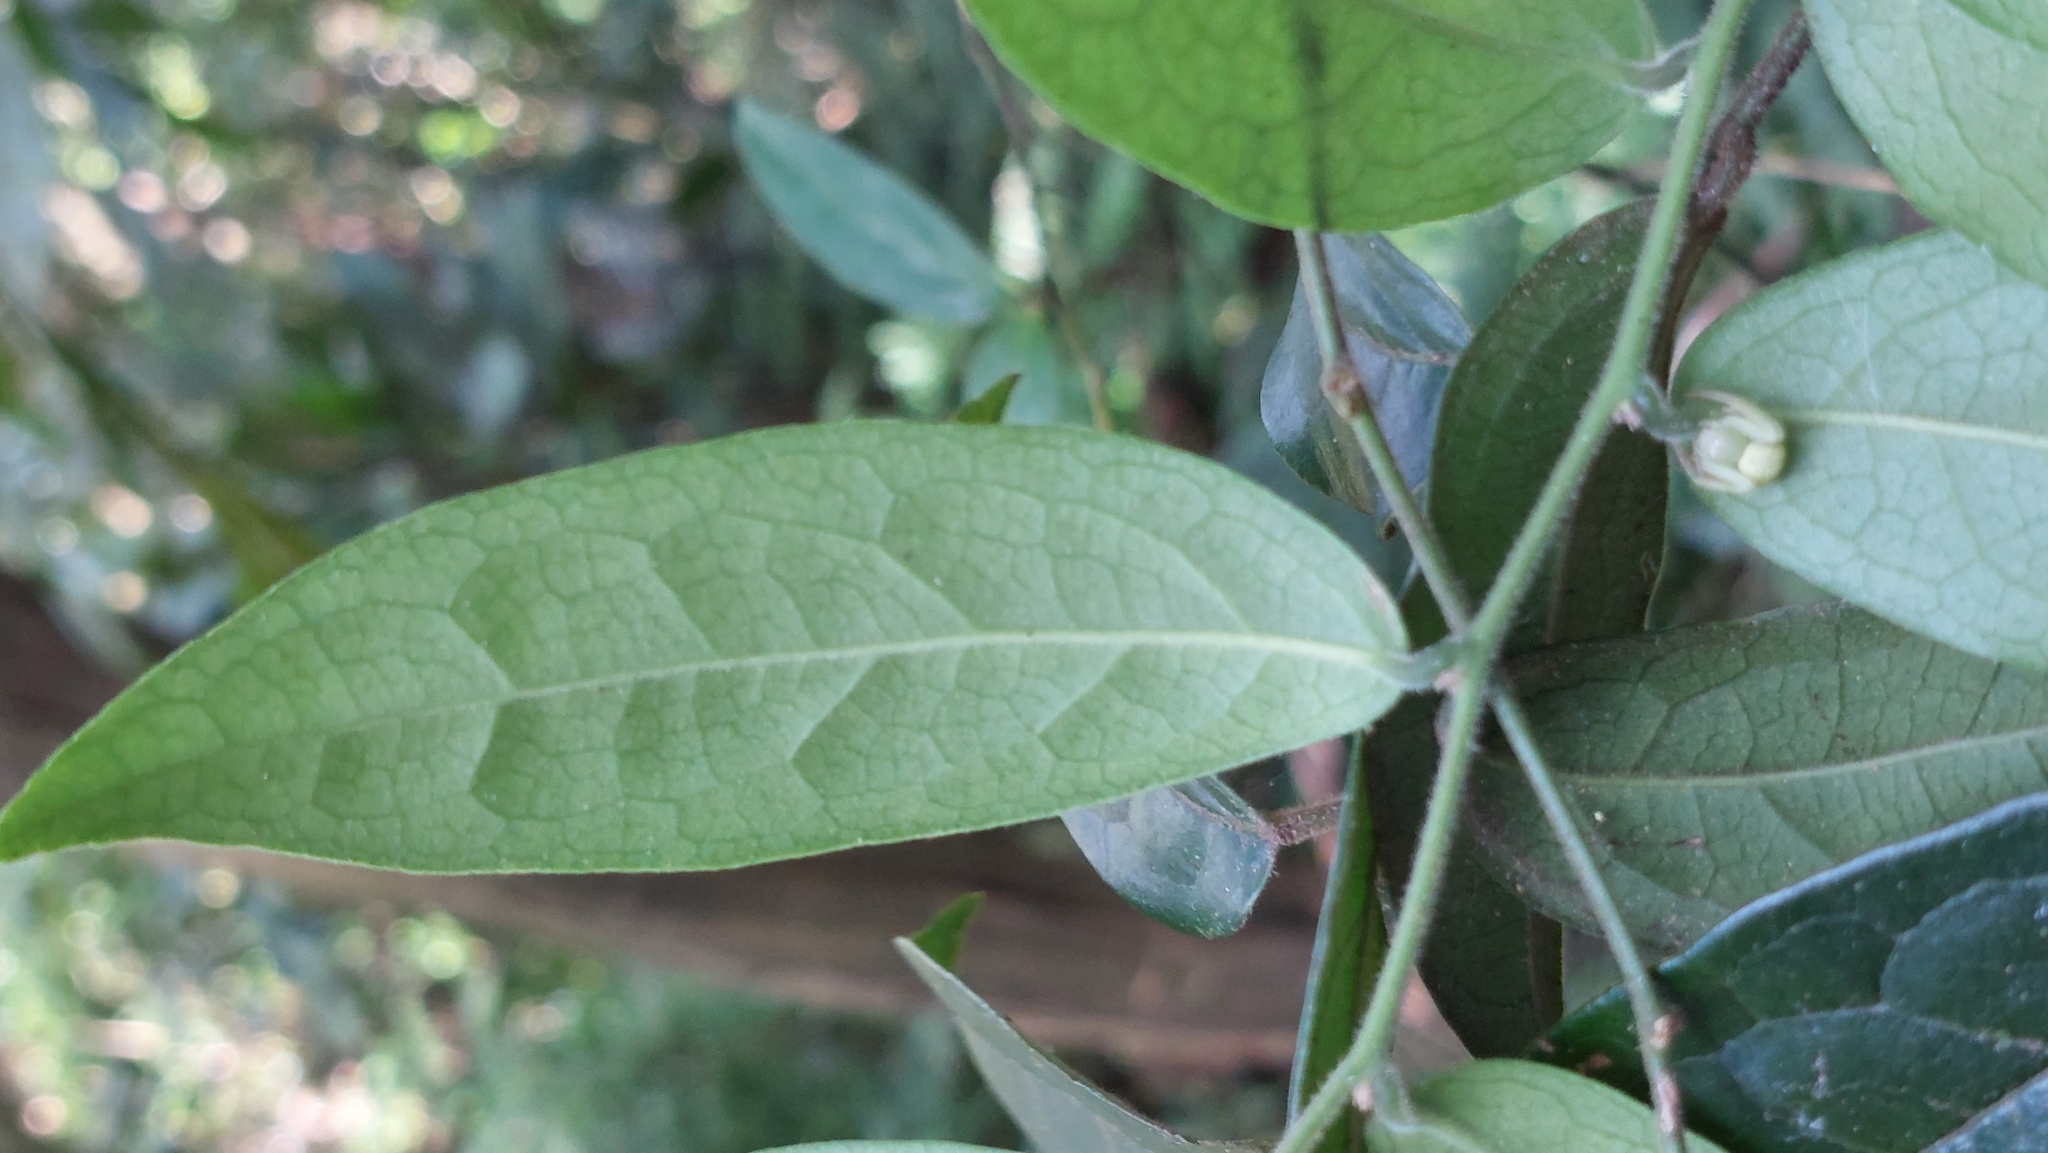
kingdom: Plantae
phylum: Tracheophyta
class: Magnoliopsida
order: Proteales
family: Sabiaceae
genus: Sabia
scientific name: Sabia swinhoei
